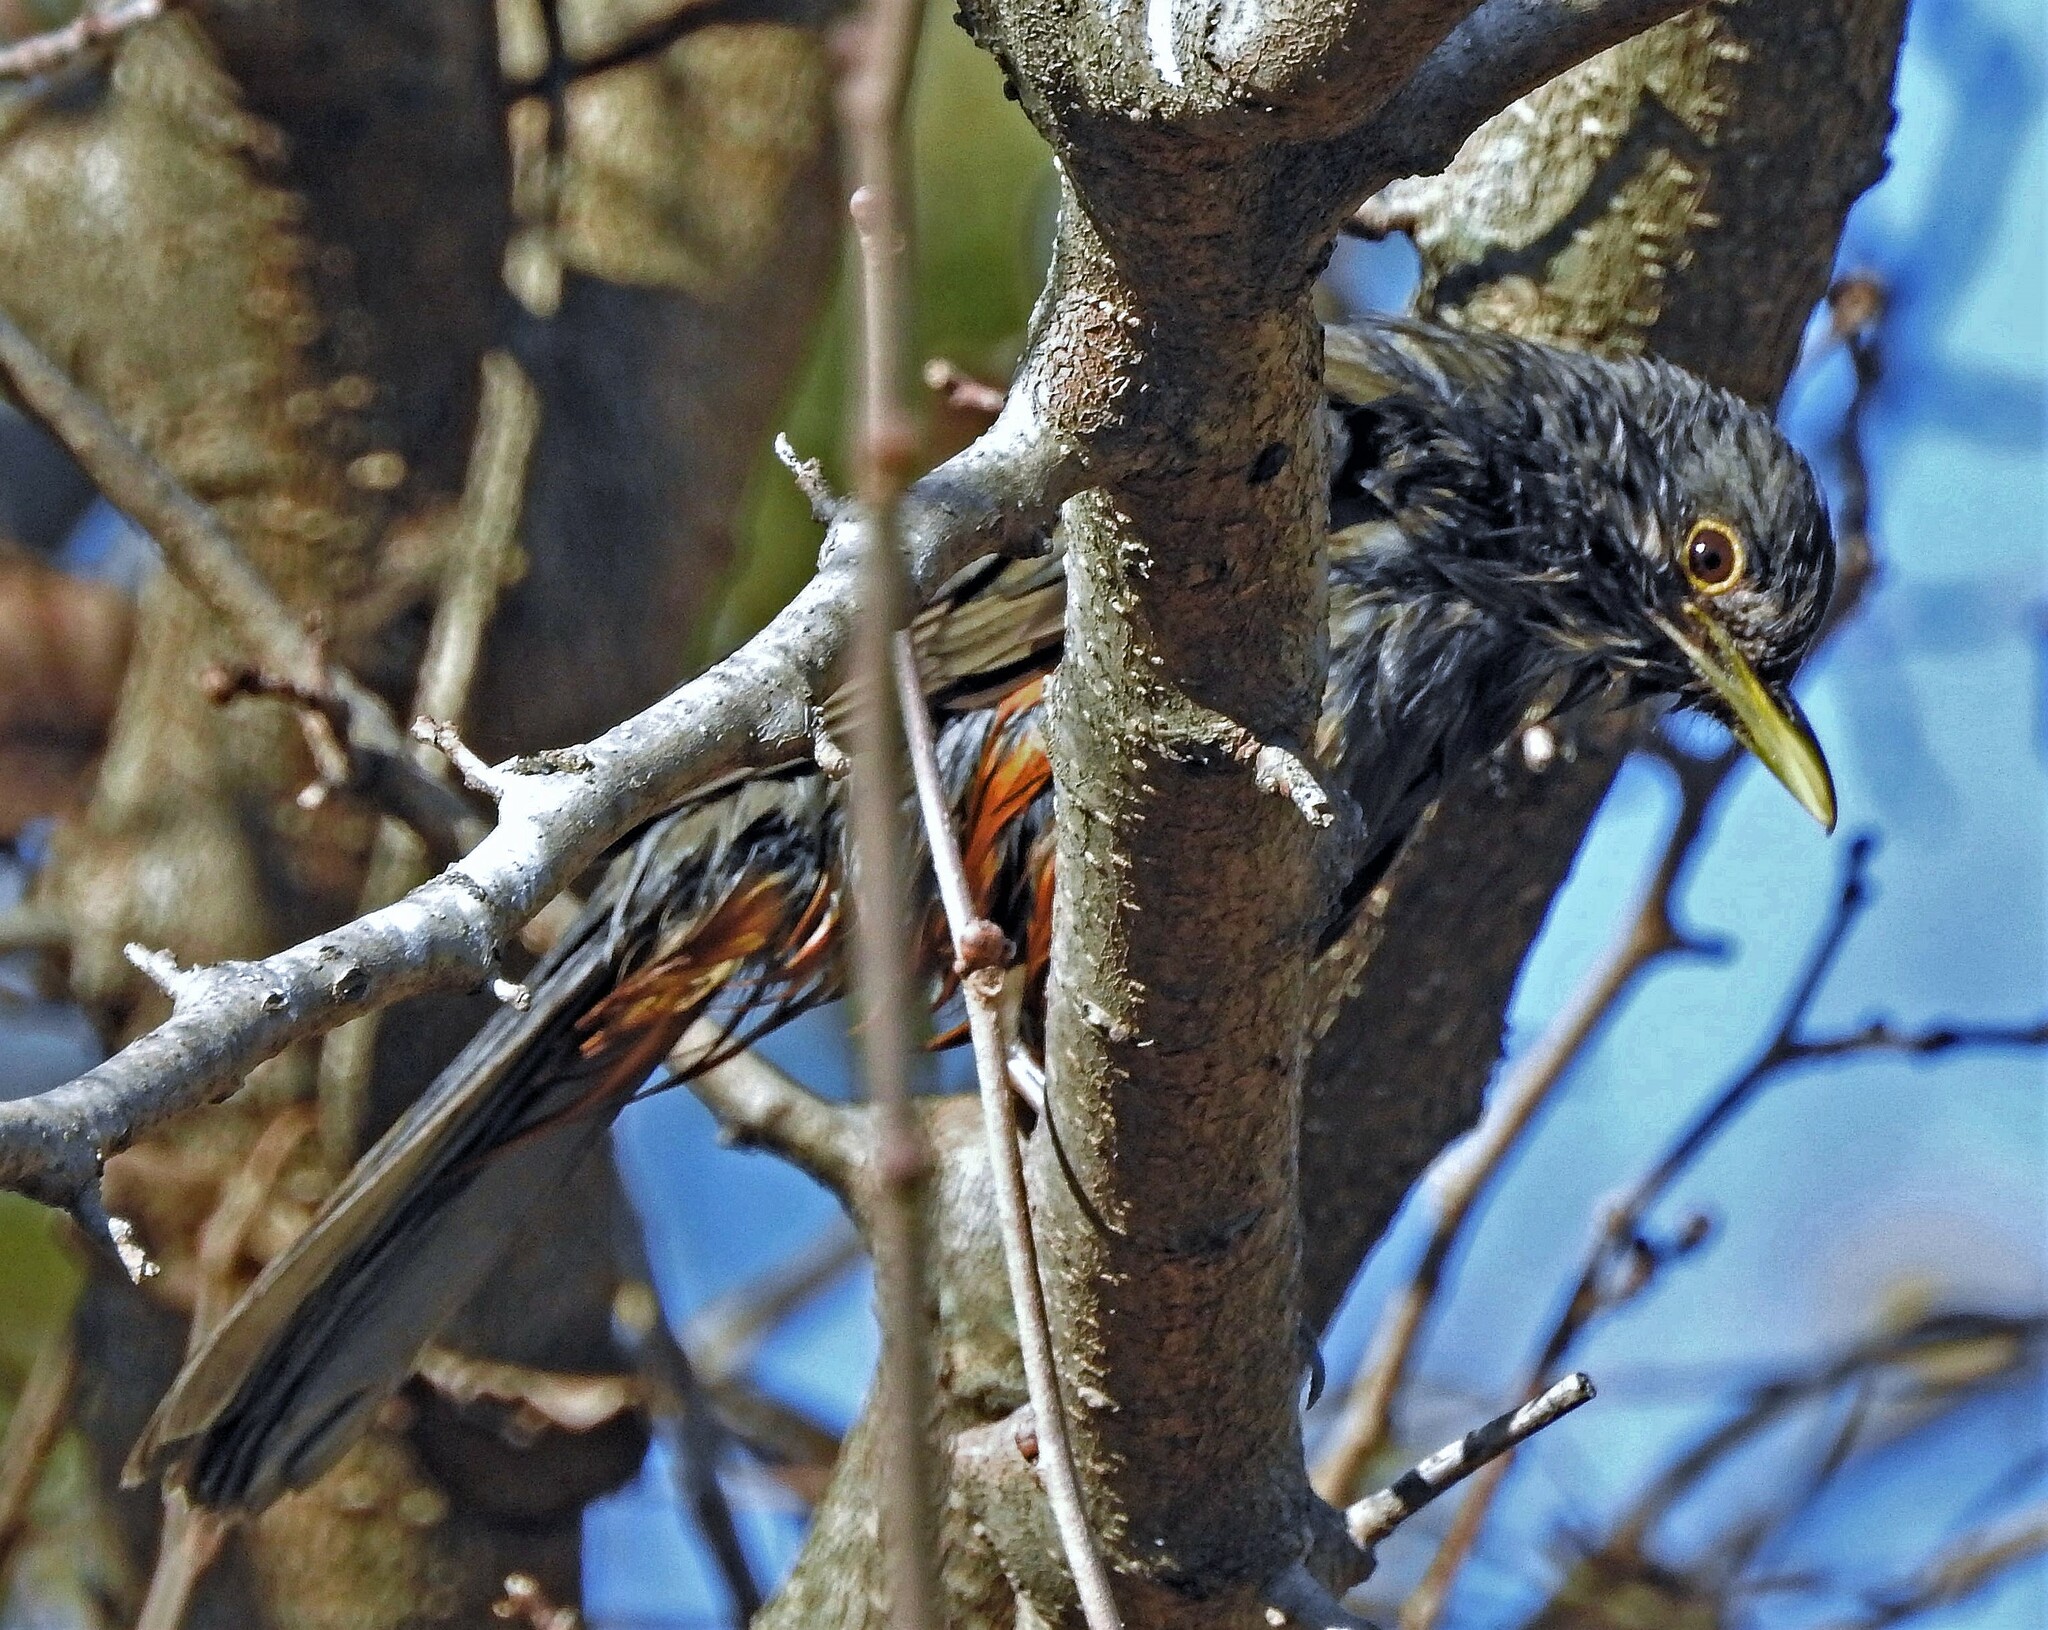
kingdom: Animalia
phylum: Chordata
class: Aves
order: Passeriformes
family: Turdidae
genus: Turdus
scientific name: Turdus rufiventris
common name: Rufous-bellied thrush
